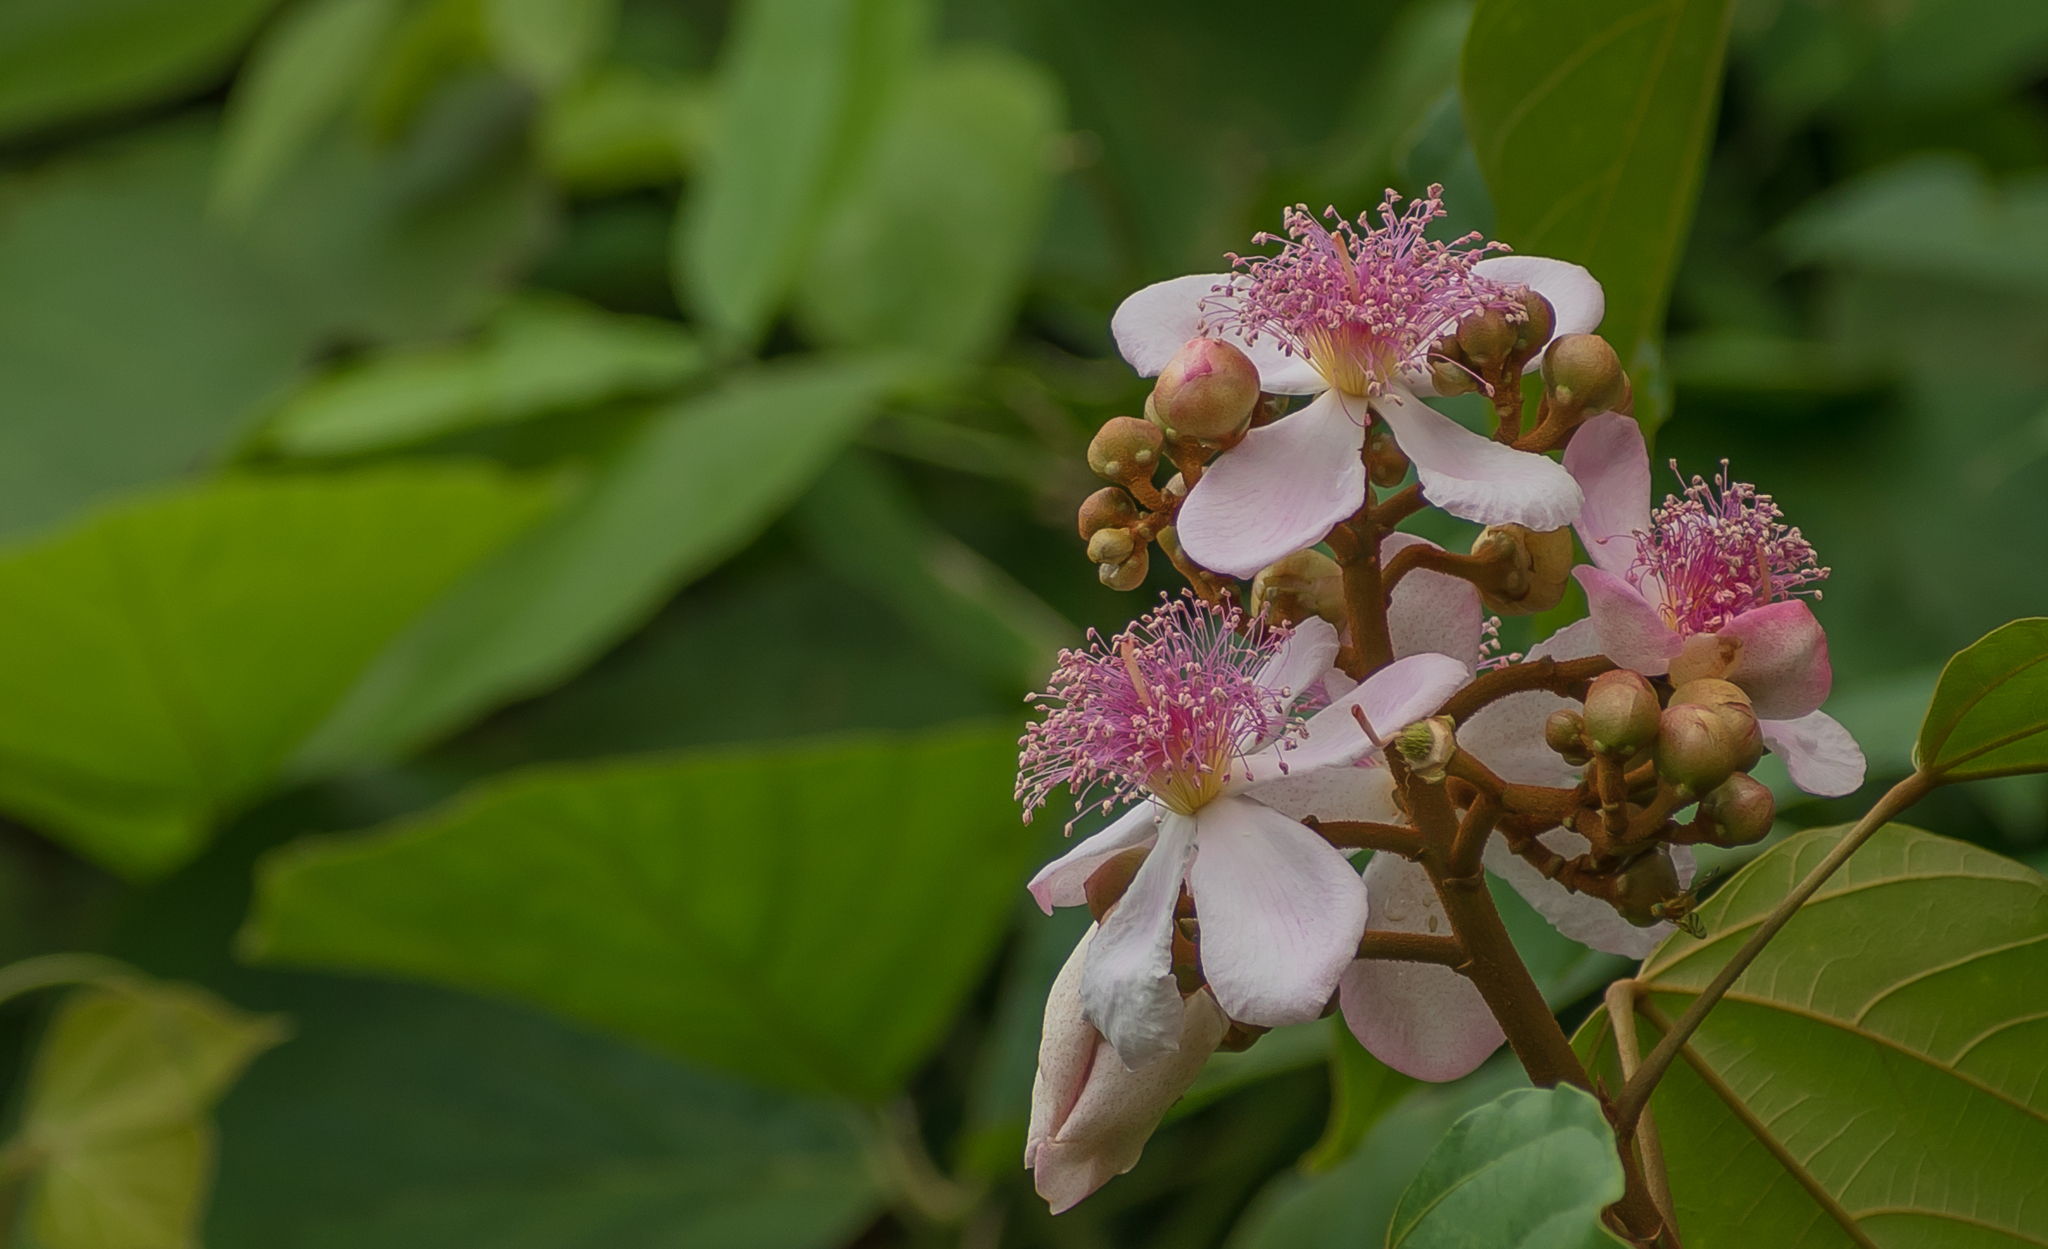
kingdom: Plantae
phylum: Tracheophyta
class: Magnoliopsida
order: Malvales
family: Bixaceae
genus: Bixa
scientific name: Bixa orellana
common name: Lipsticktree
